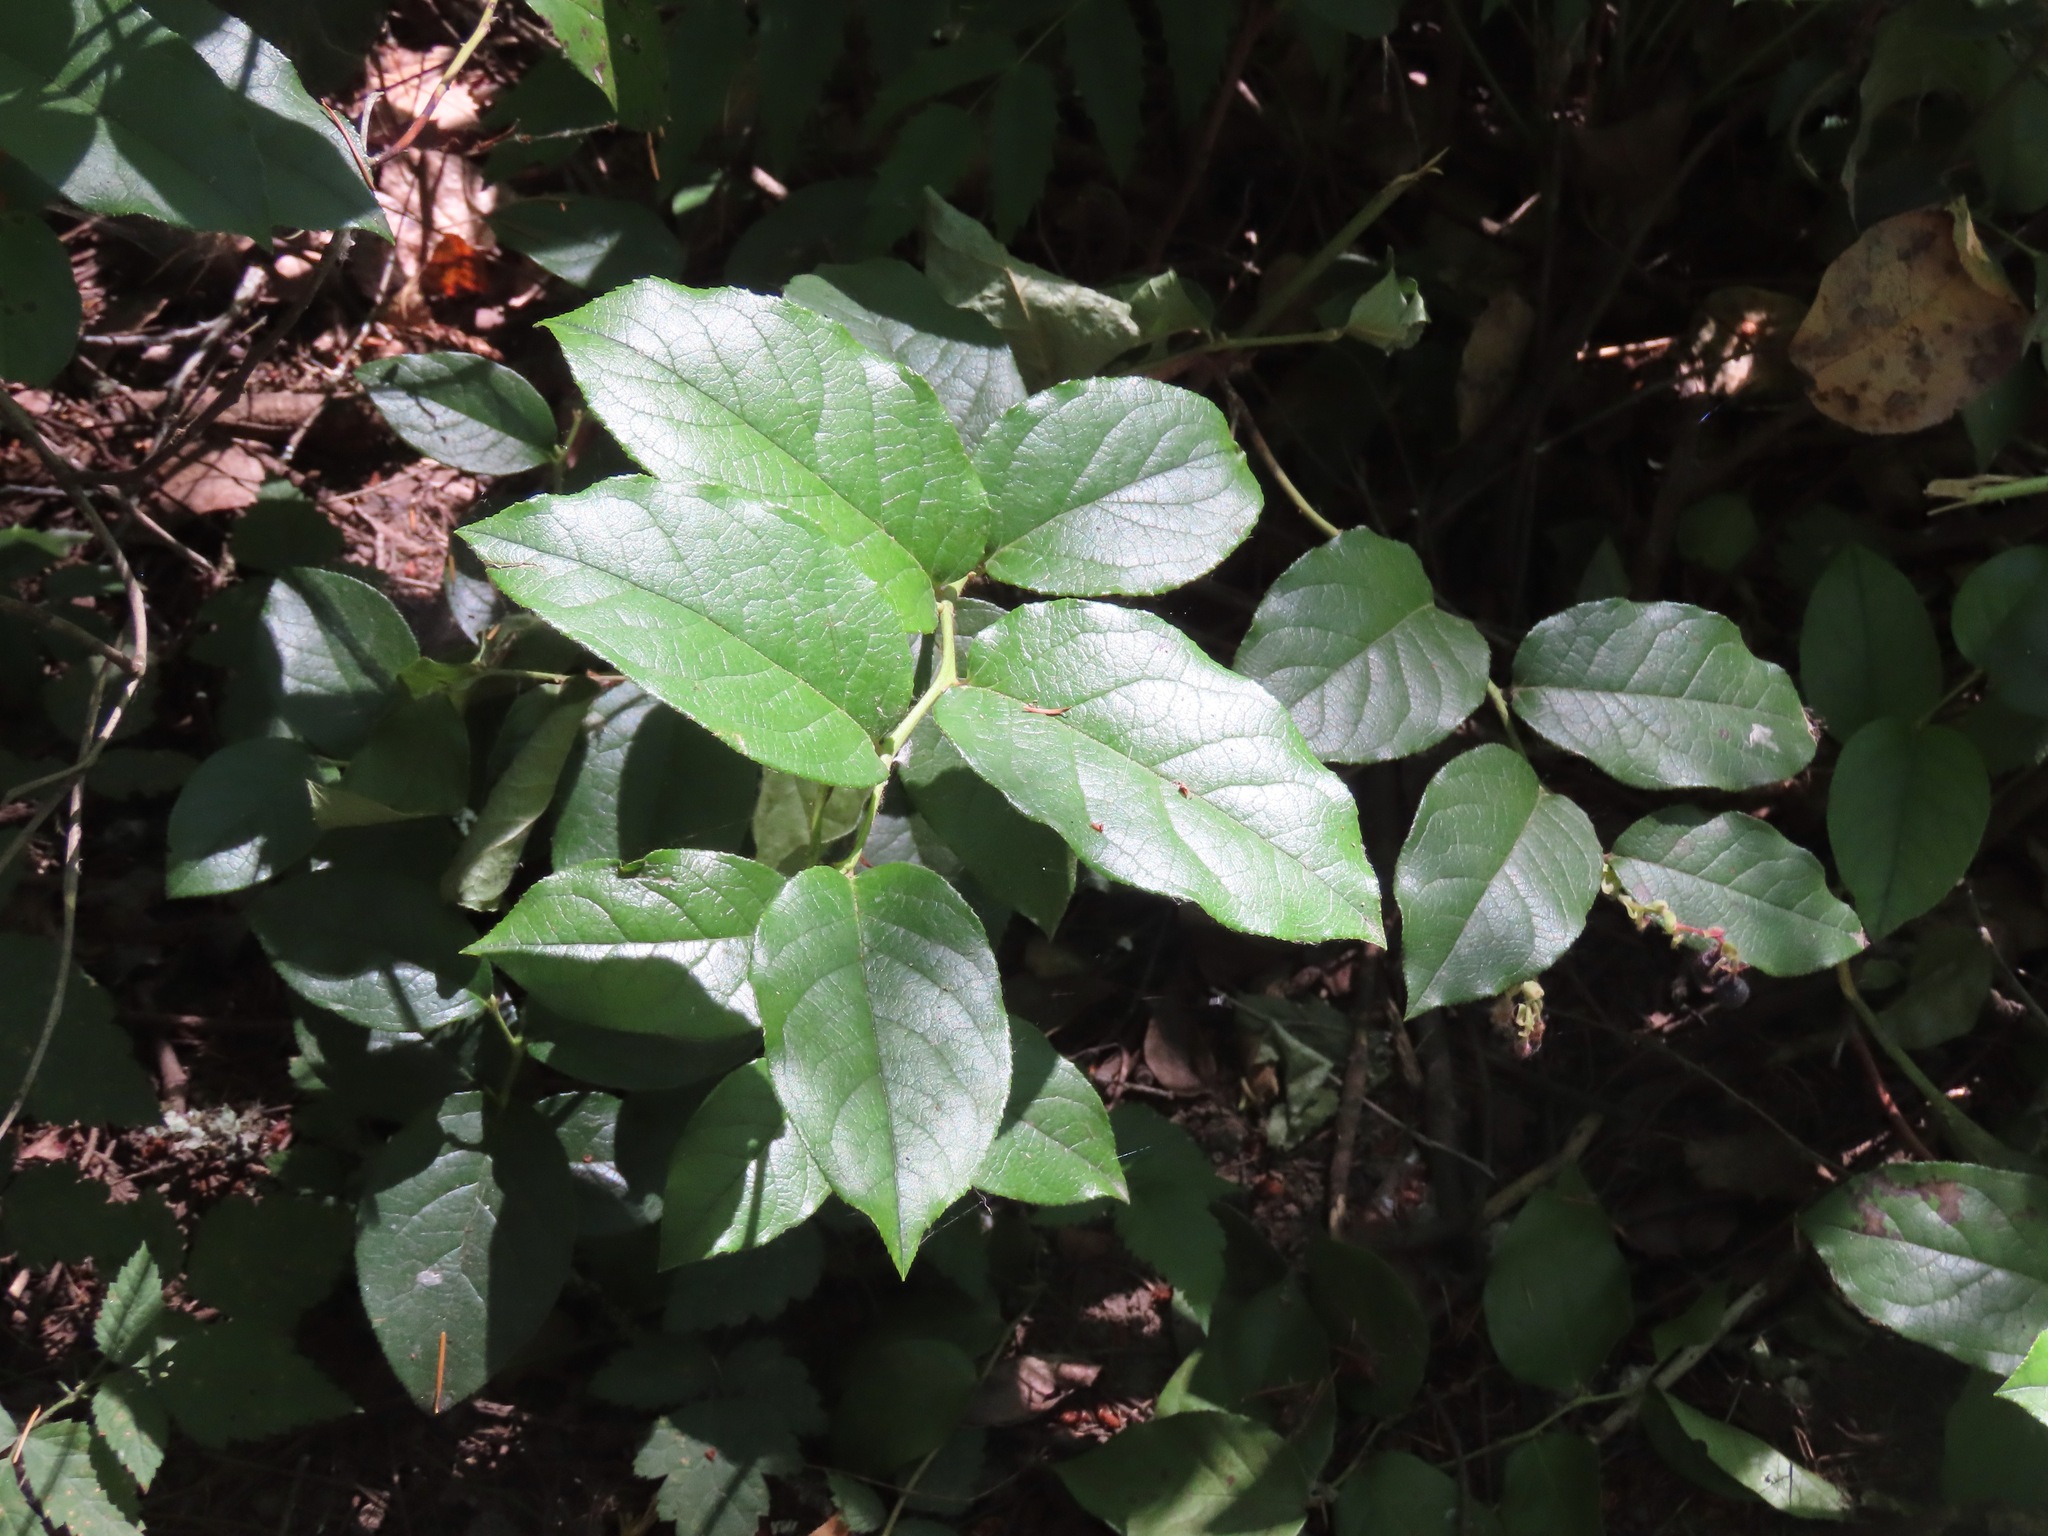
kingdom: Plantae
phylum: Tracheophyta
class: Magnoliopsida
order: Ericales
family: Ericaceae
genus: Gaultheria
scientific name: Gaultheria shallon
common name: Shallon
